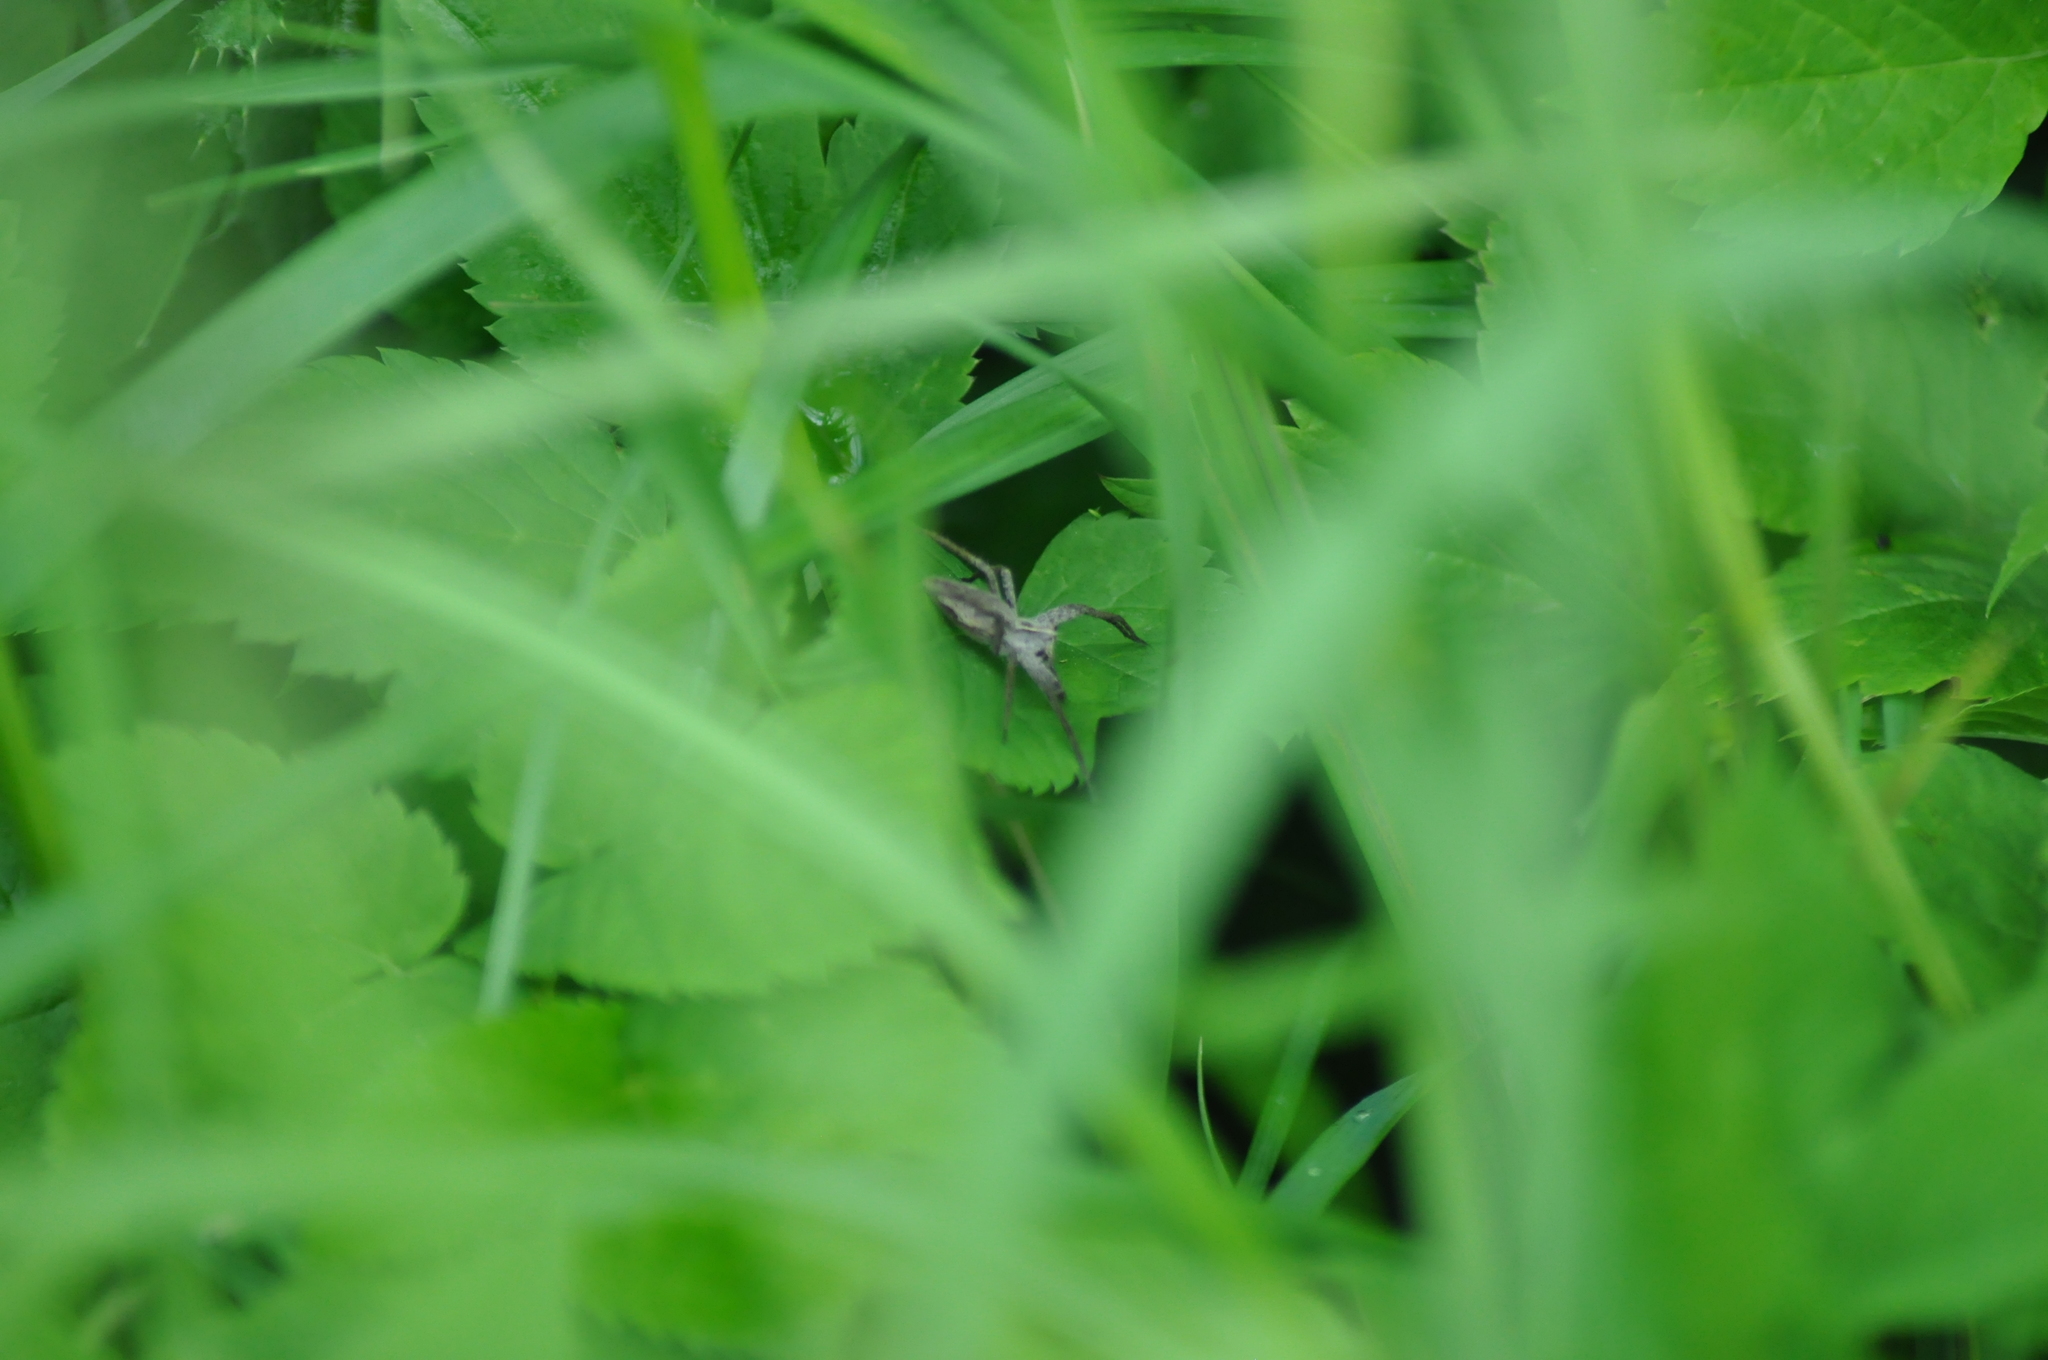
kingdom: Animalia
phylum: Arthropoda
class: Arachnida
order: Araneae
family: Pisauridae
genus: Pisaura
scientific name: Pisaura mirabilis
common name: Tent spider
